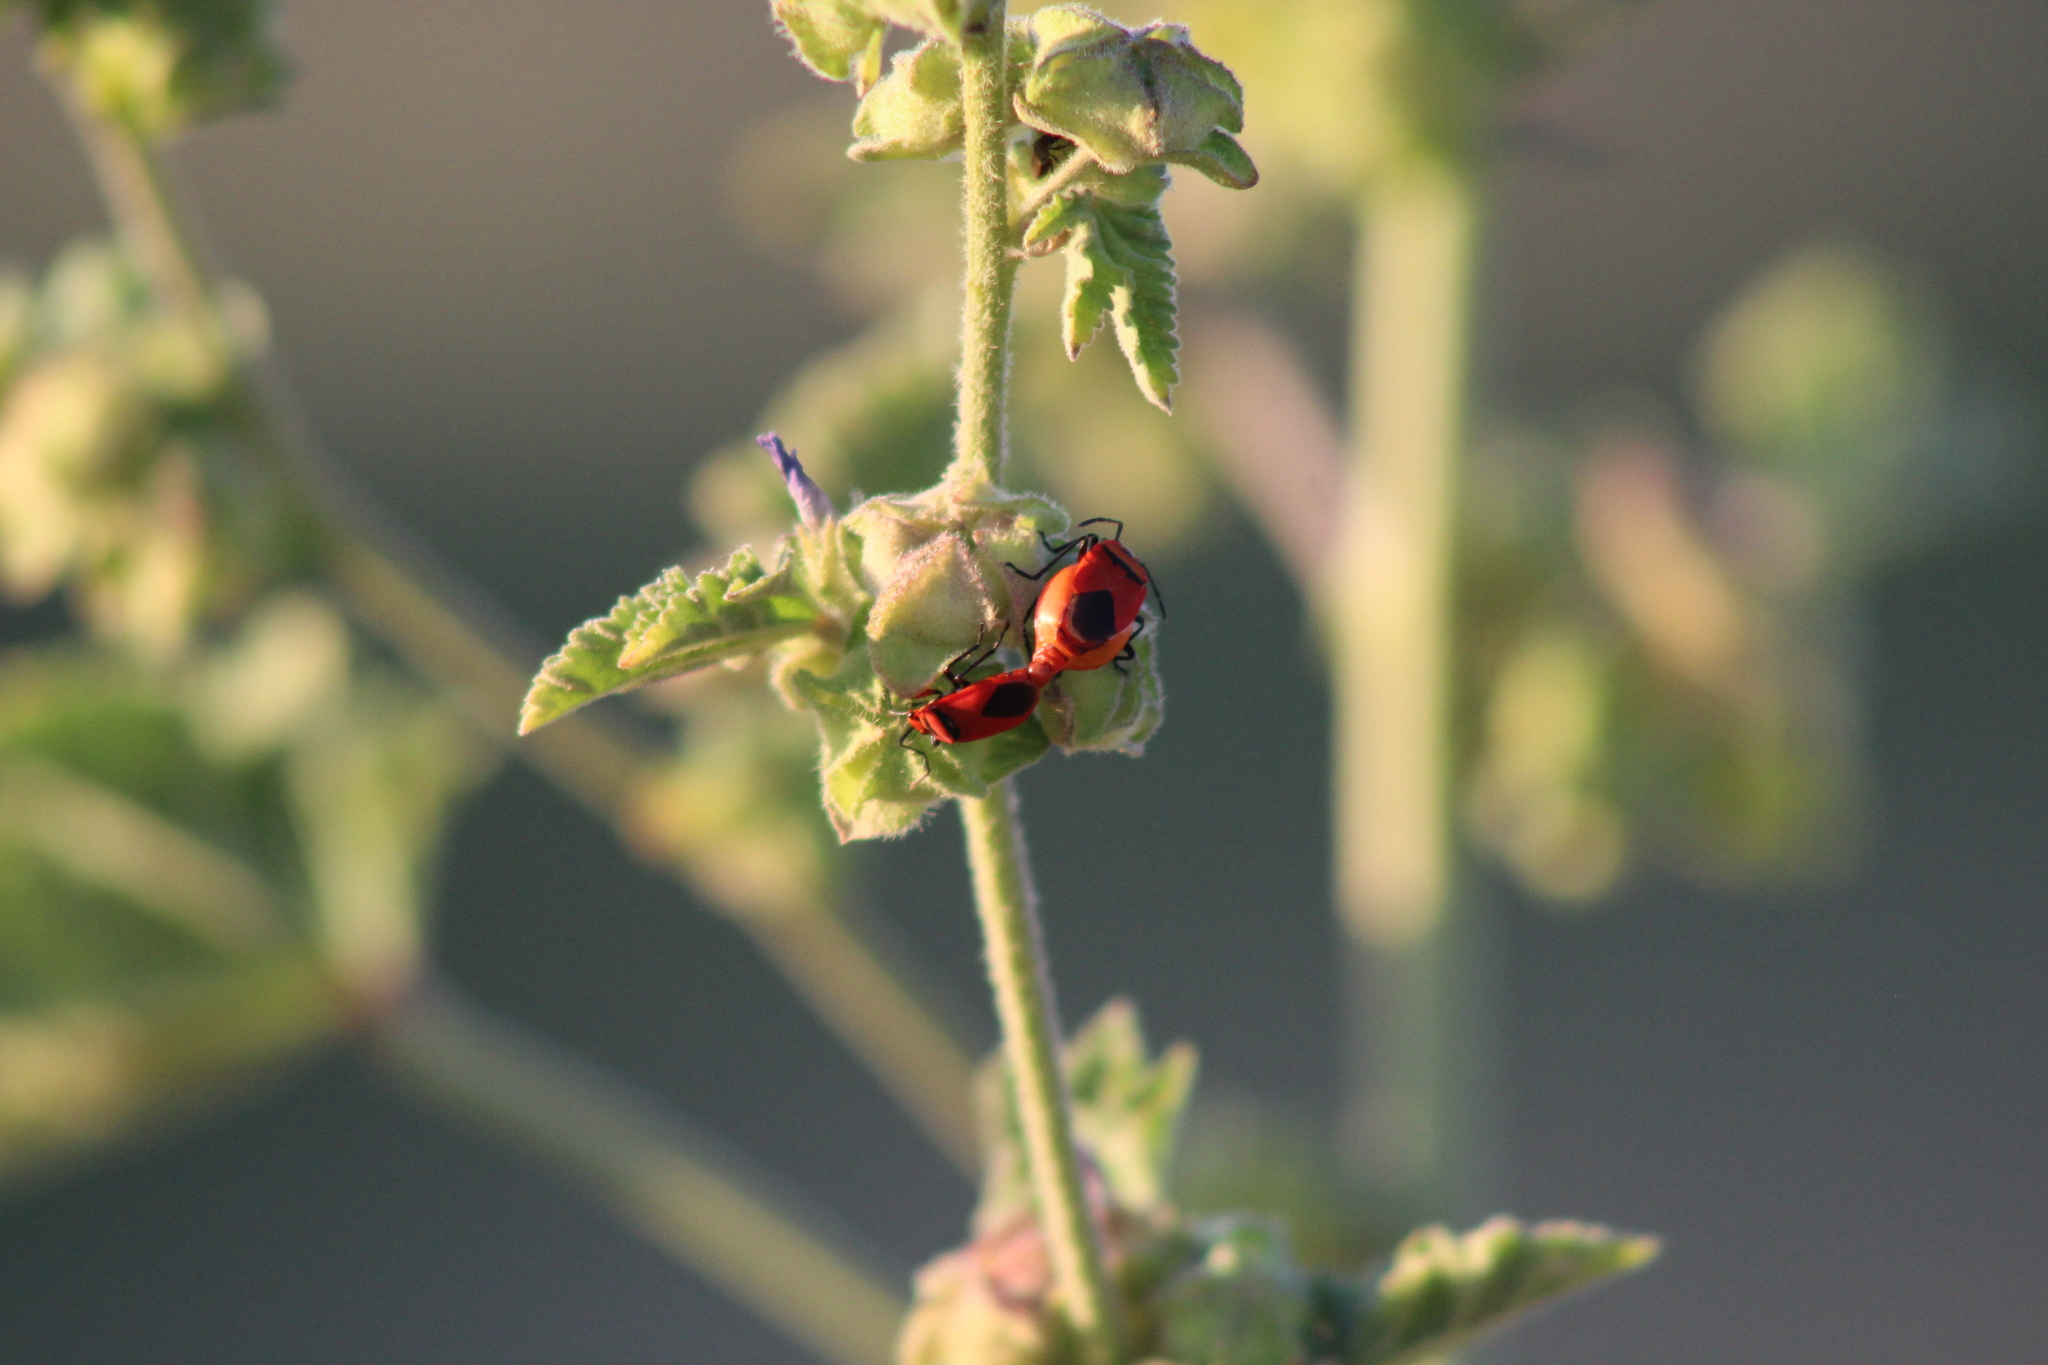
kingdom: Animalia
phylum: Arthropoda
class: Insecta
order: Hemiptera
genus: Cenaeus
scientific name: Cenaeus
